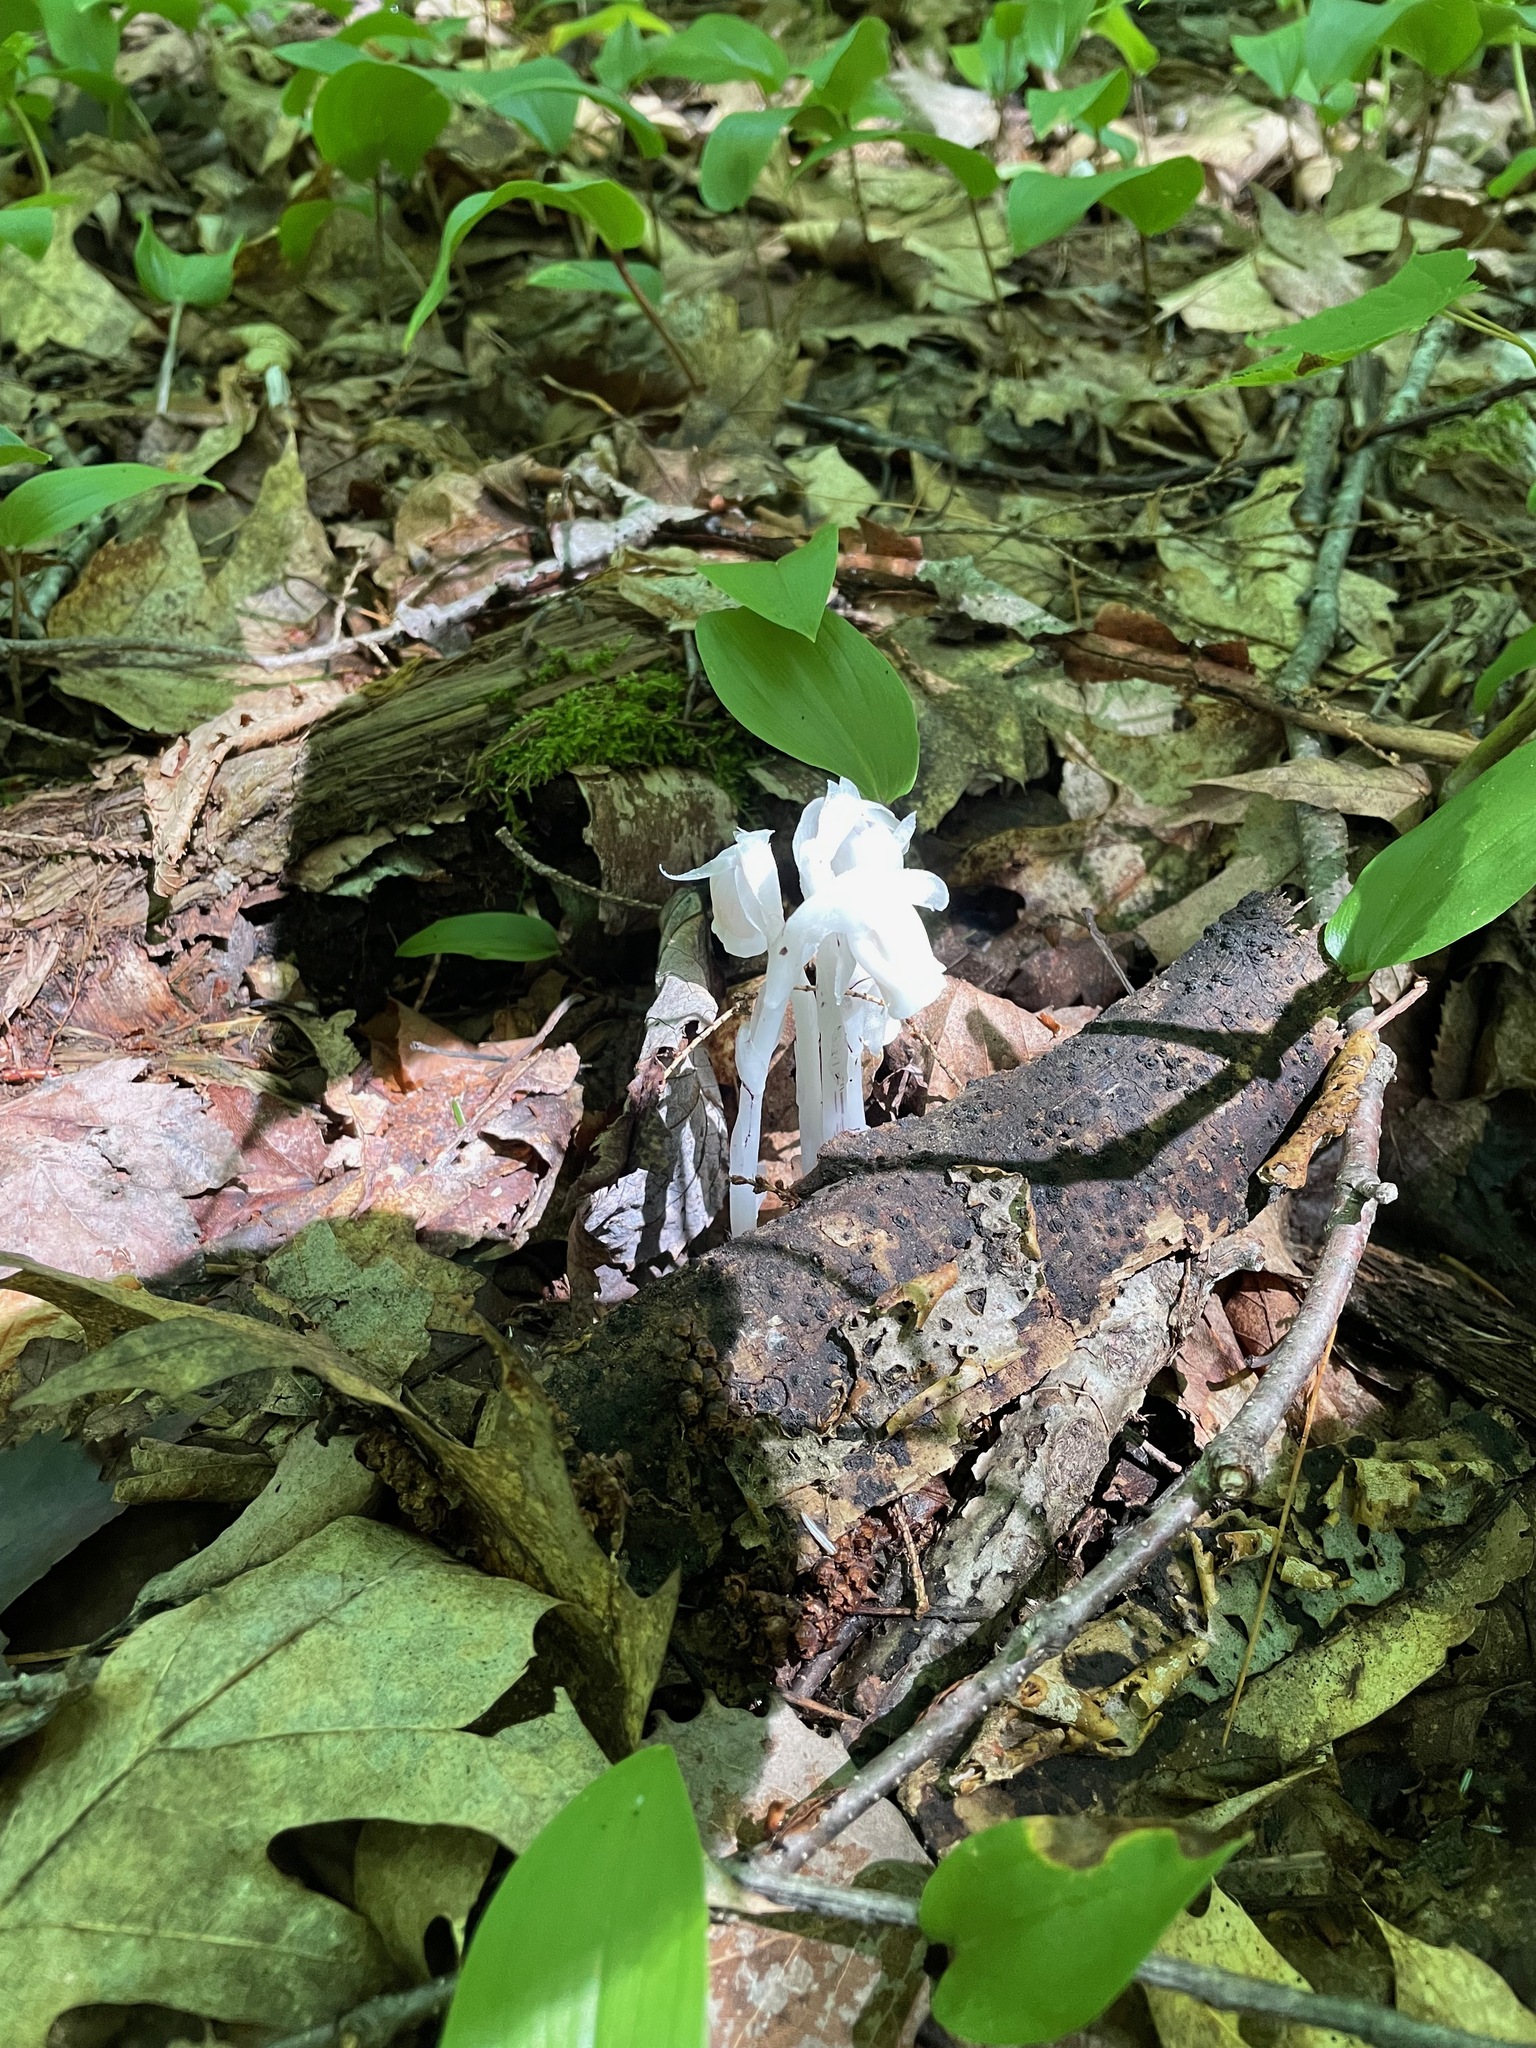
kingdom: Plantae
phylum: Tracheophyta
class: Magnoliopsida
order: Ericales
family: Ericaceae
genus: Monotropa
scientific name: Monotropa uniflora
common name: Convulsion root
